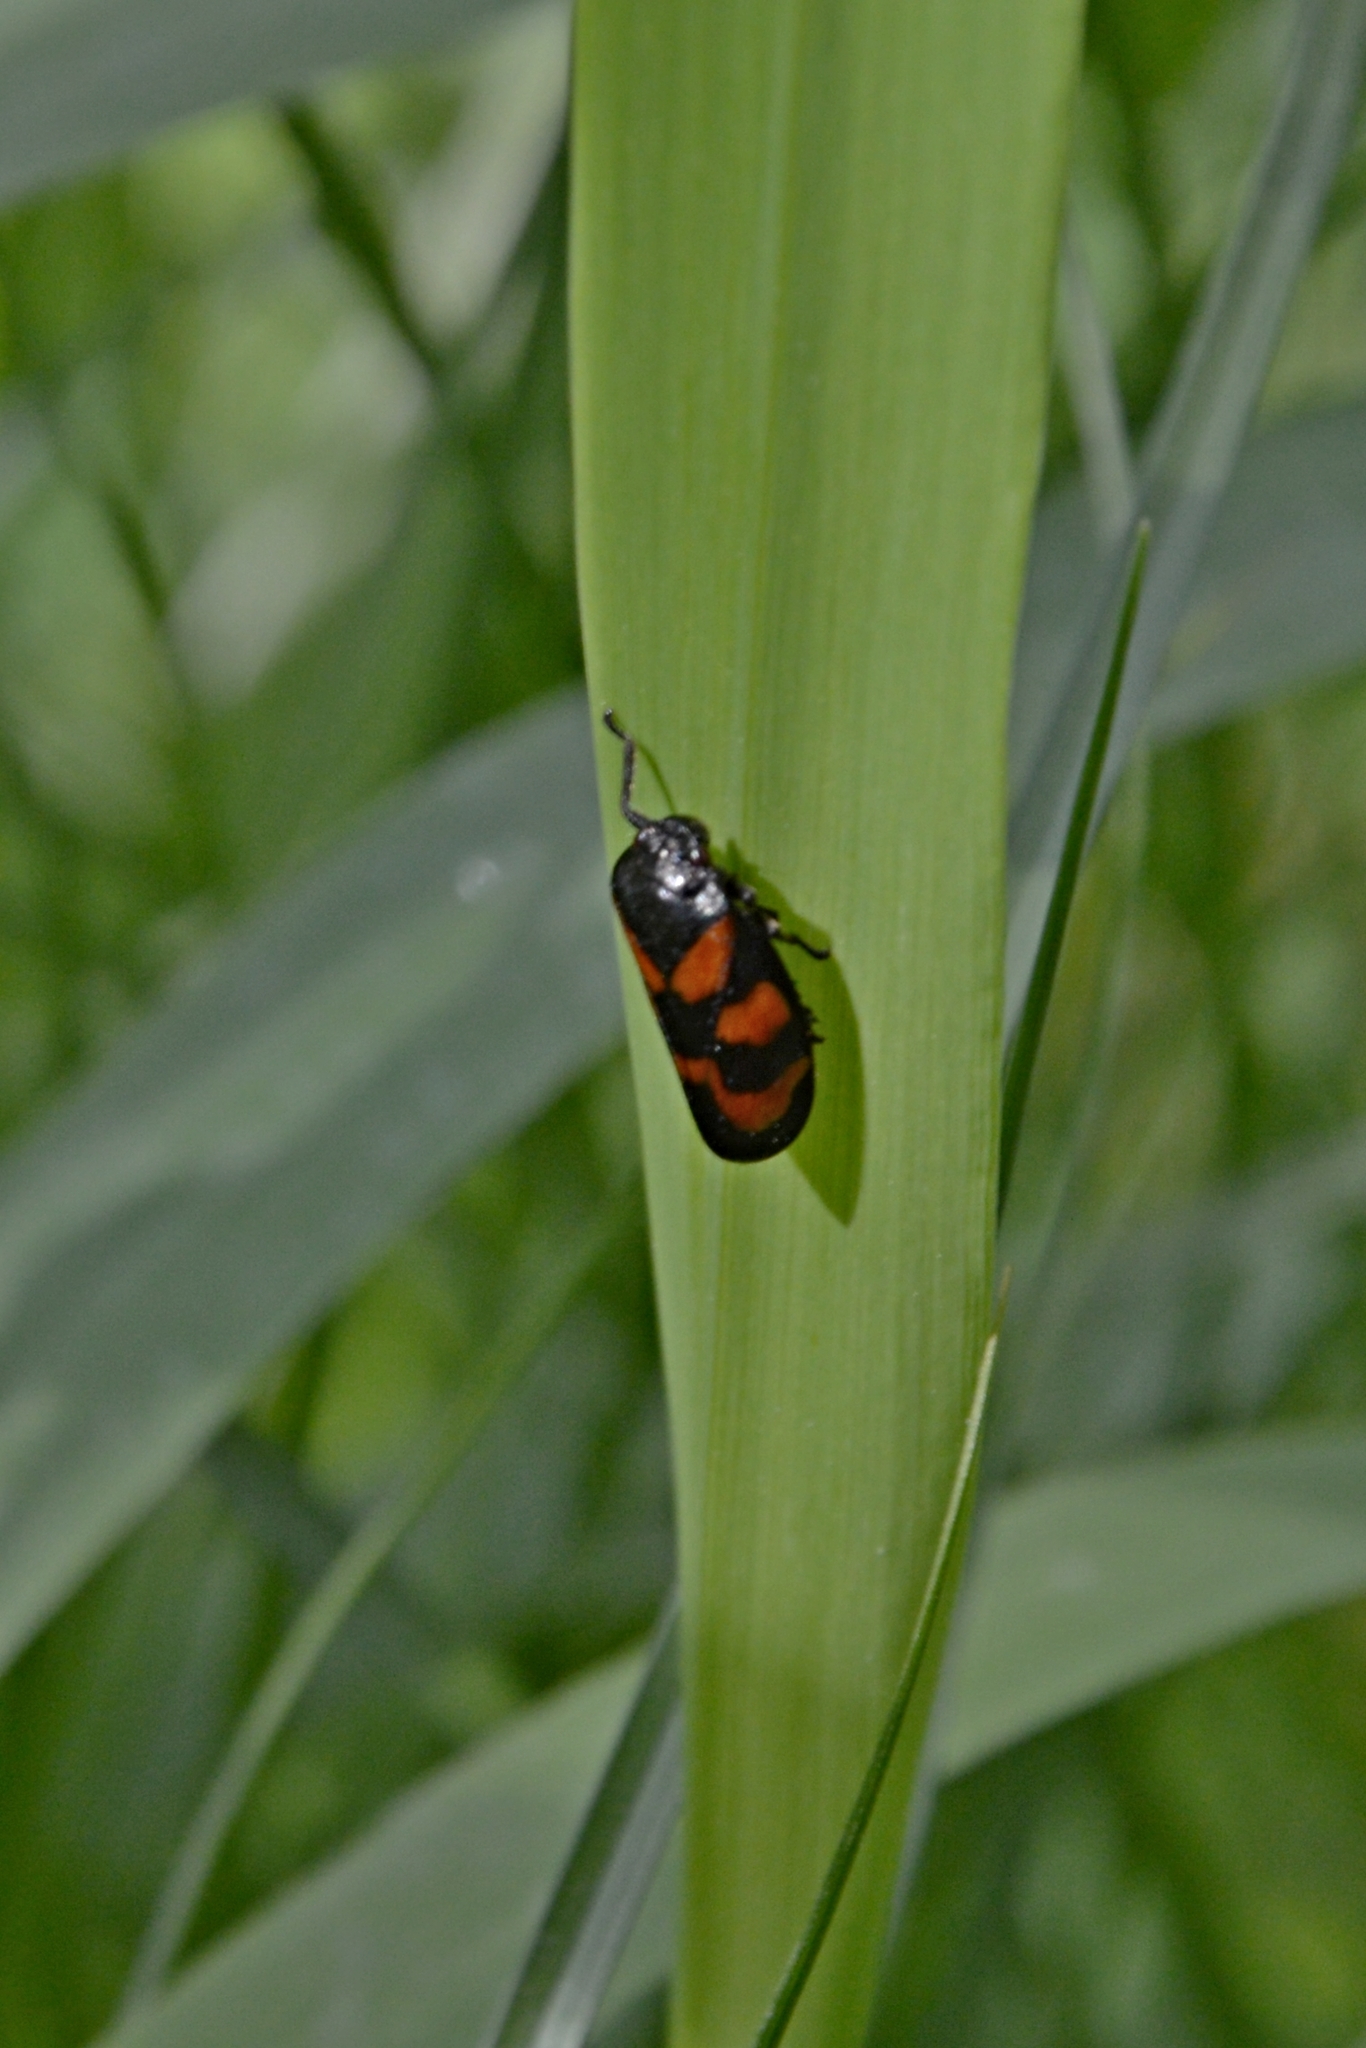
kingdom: Animalia
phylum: Arthropoda
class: Insecta
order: Hemiptera
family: Cercopidae
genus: Cercopis
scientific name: Cercopis vulnerata
